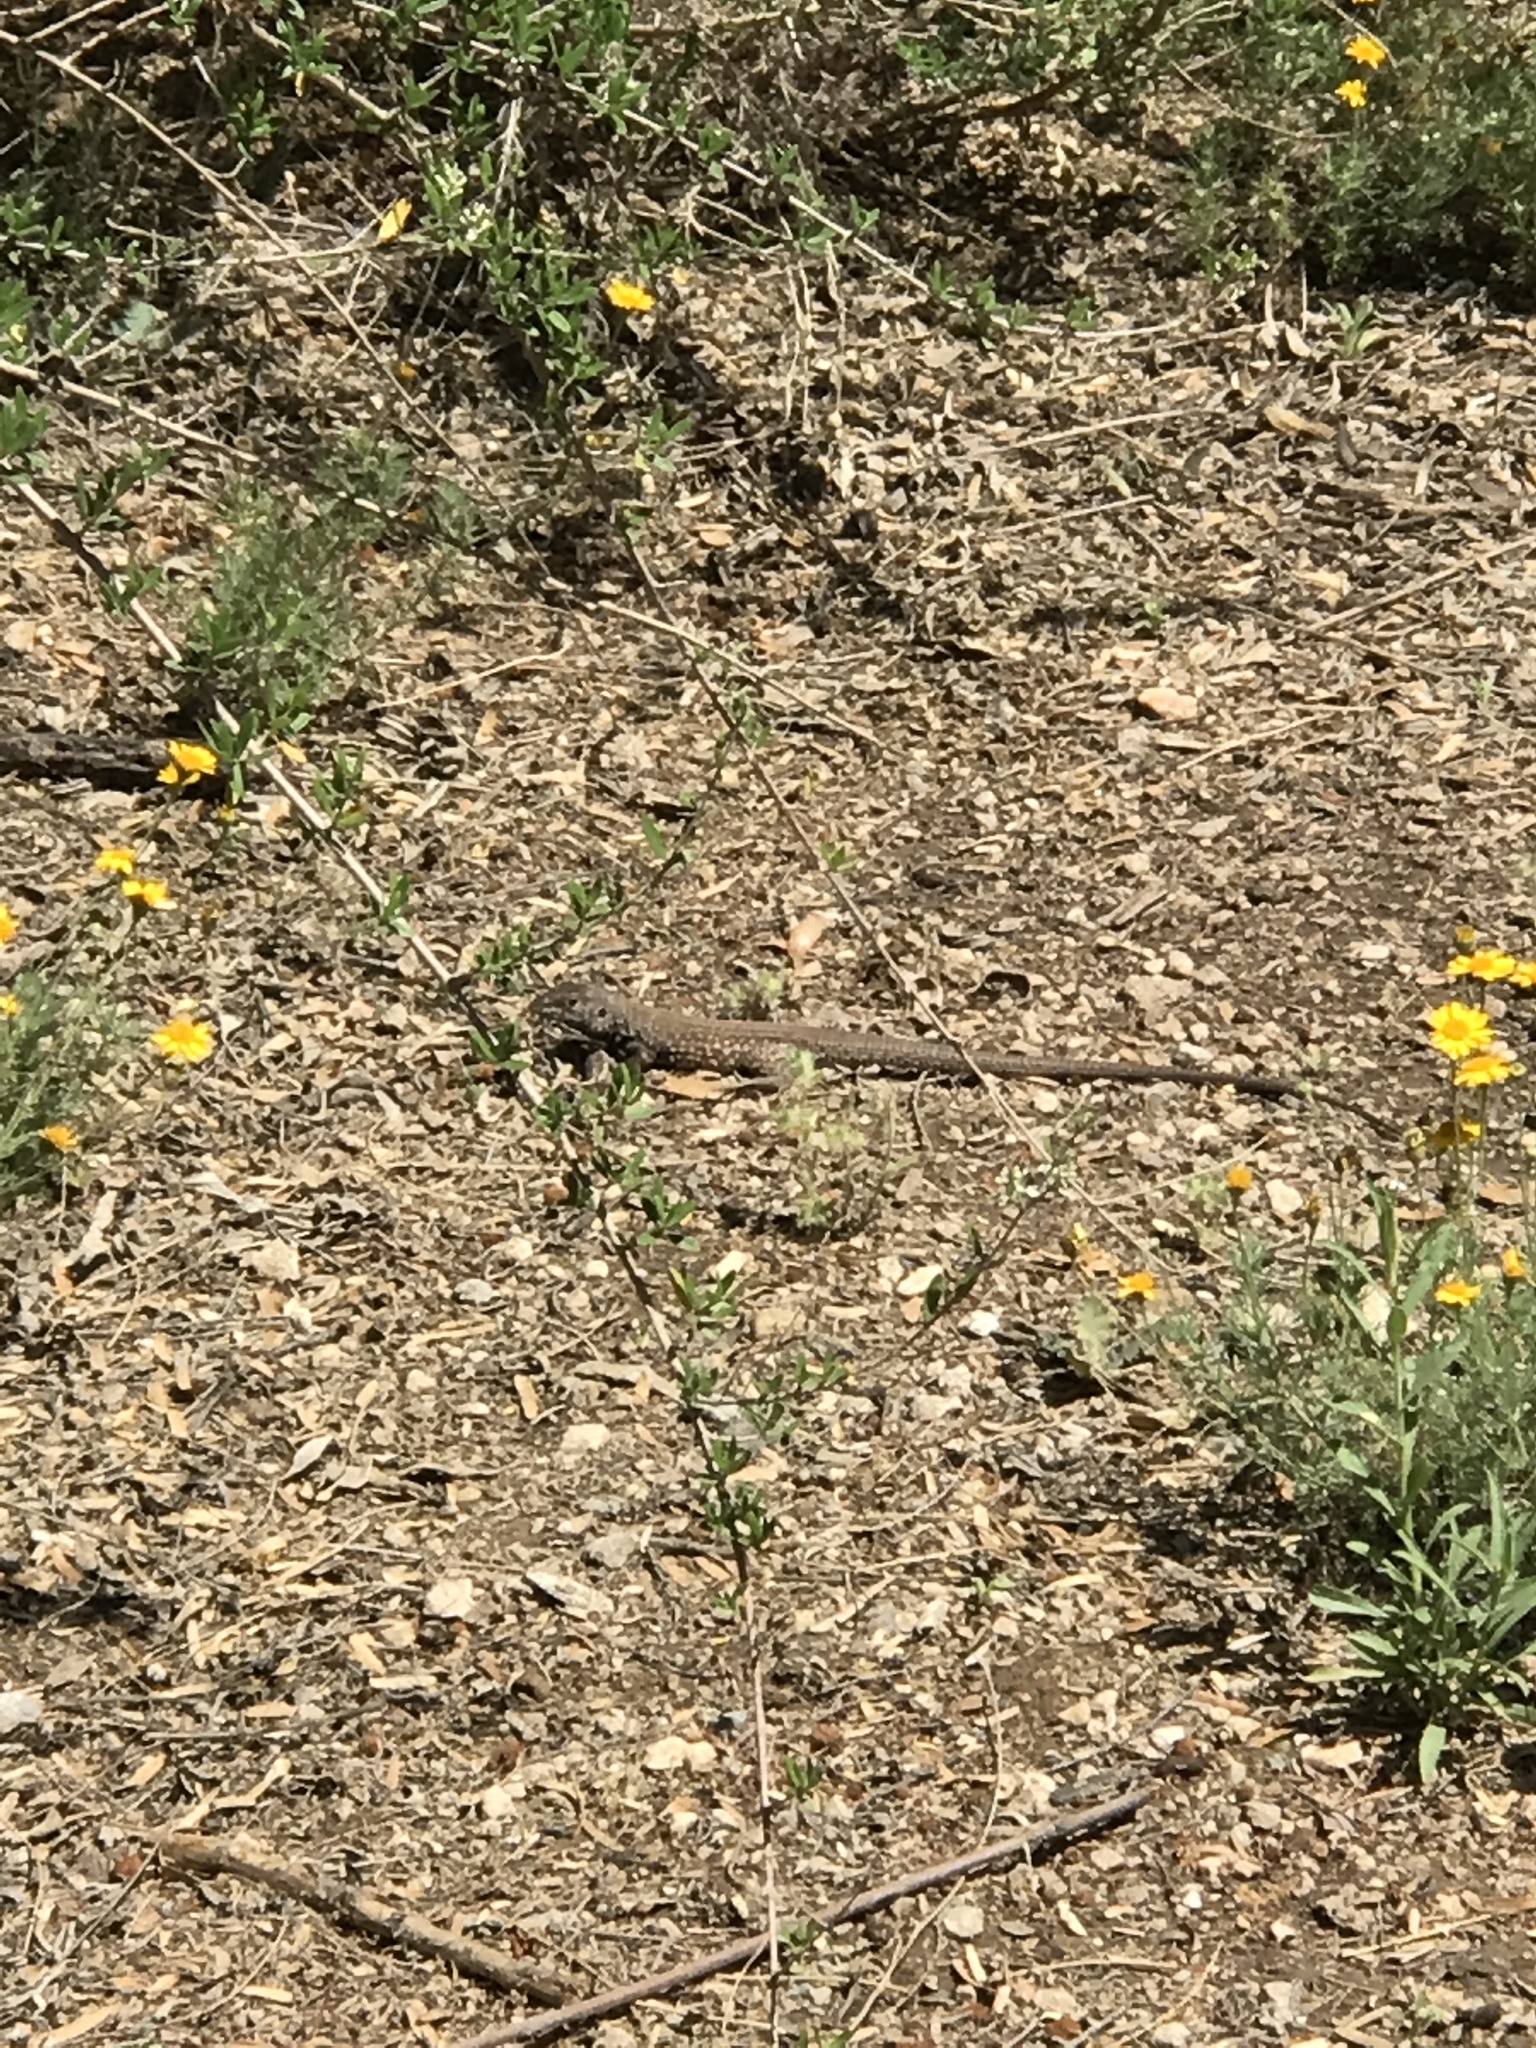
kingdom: Animalia
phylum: Chordata
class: Squamata
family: Teiidae
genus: Aspidoscelis
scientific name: Aspidoscelis tigris
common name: Tiger whiptail
